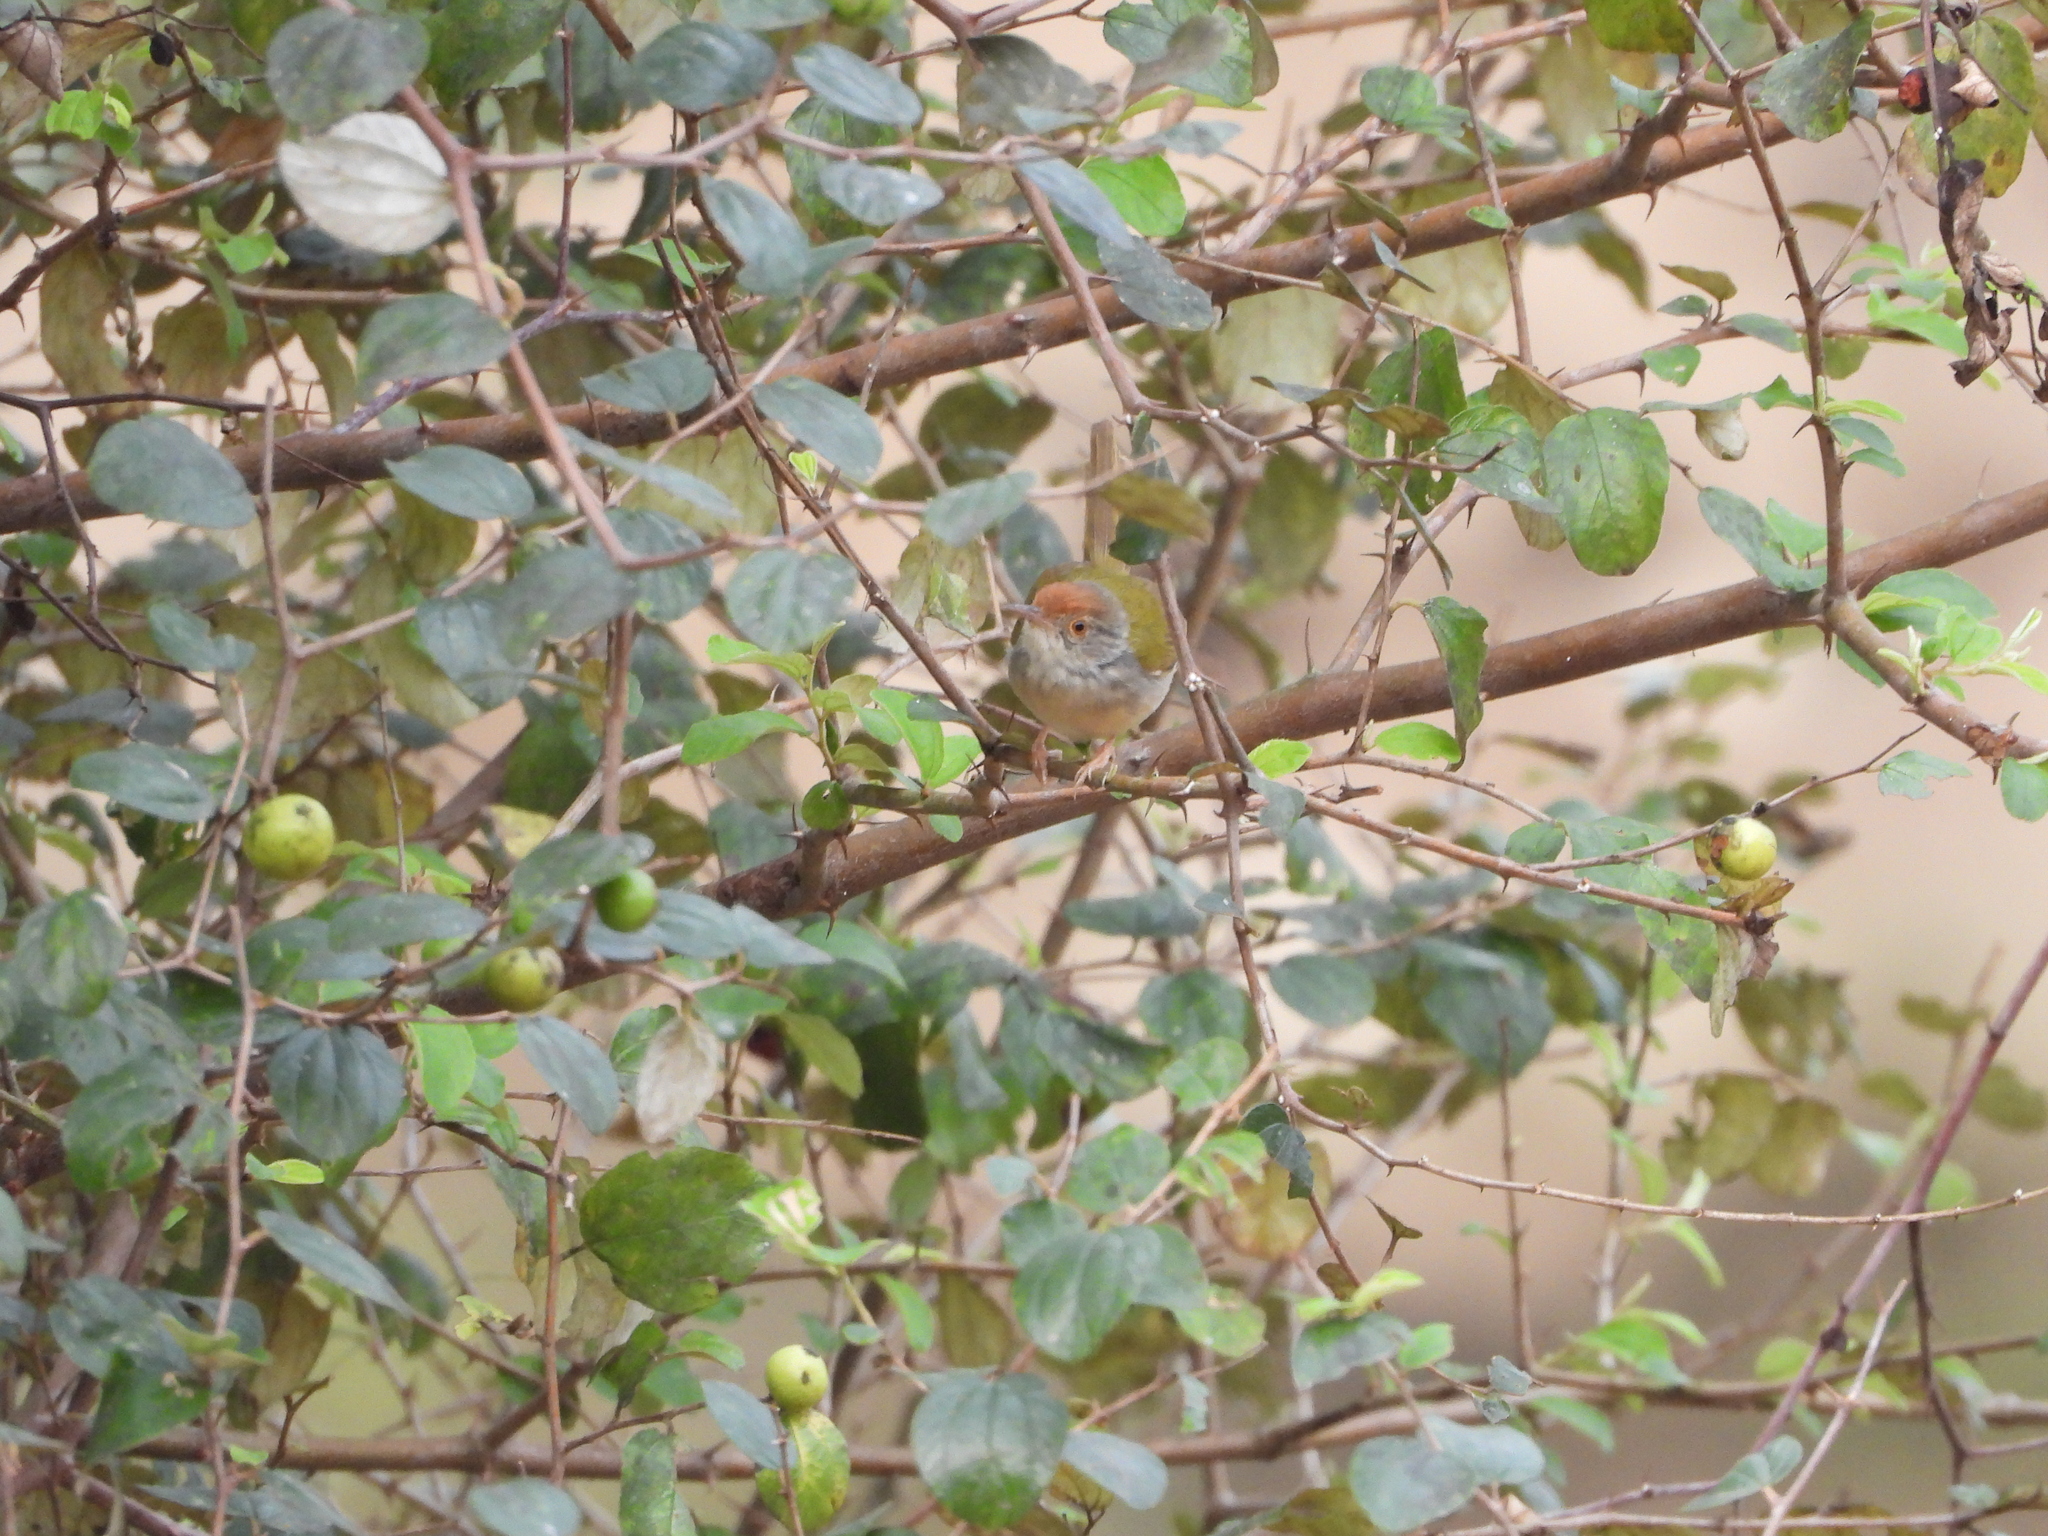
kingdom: Animalia
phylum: Chordata
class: Aves
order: Passeriformes
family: Cisticolidae
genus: Orthotomus
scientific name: Orthotomus sutorius
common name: Common tailorbird
